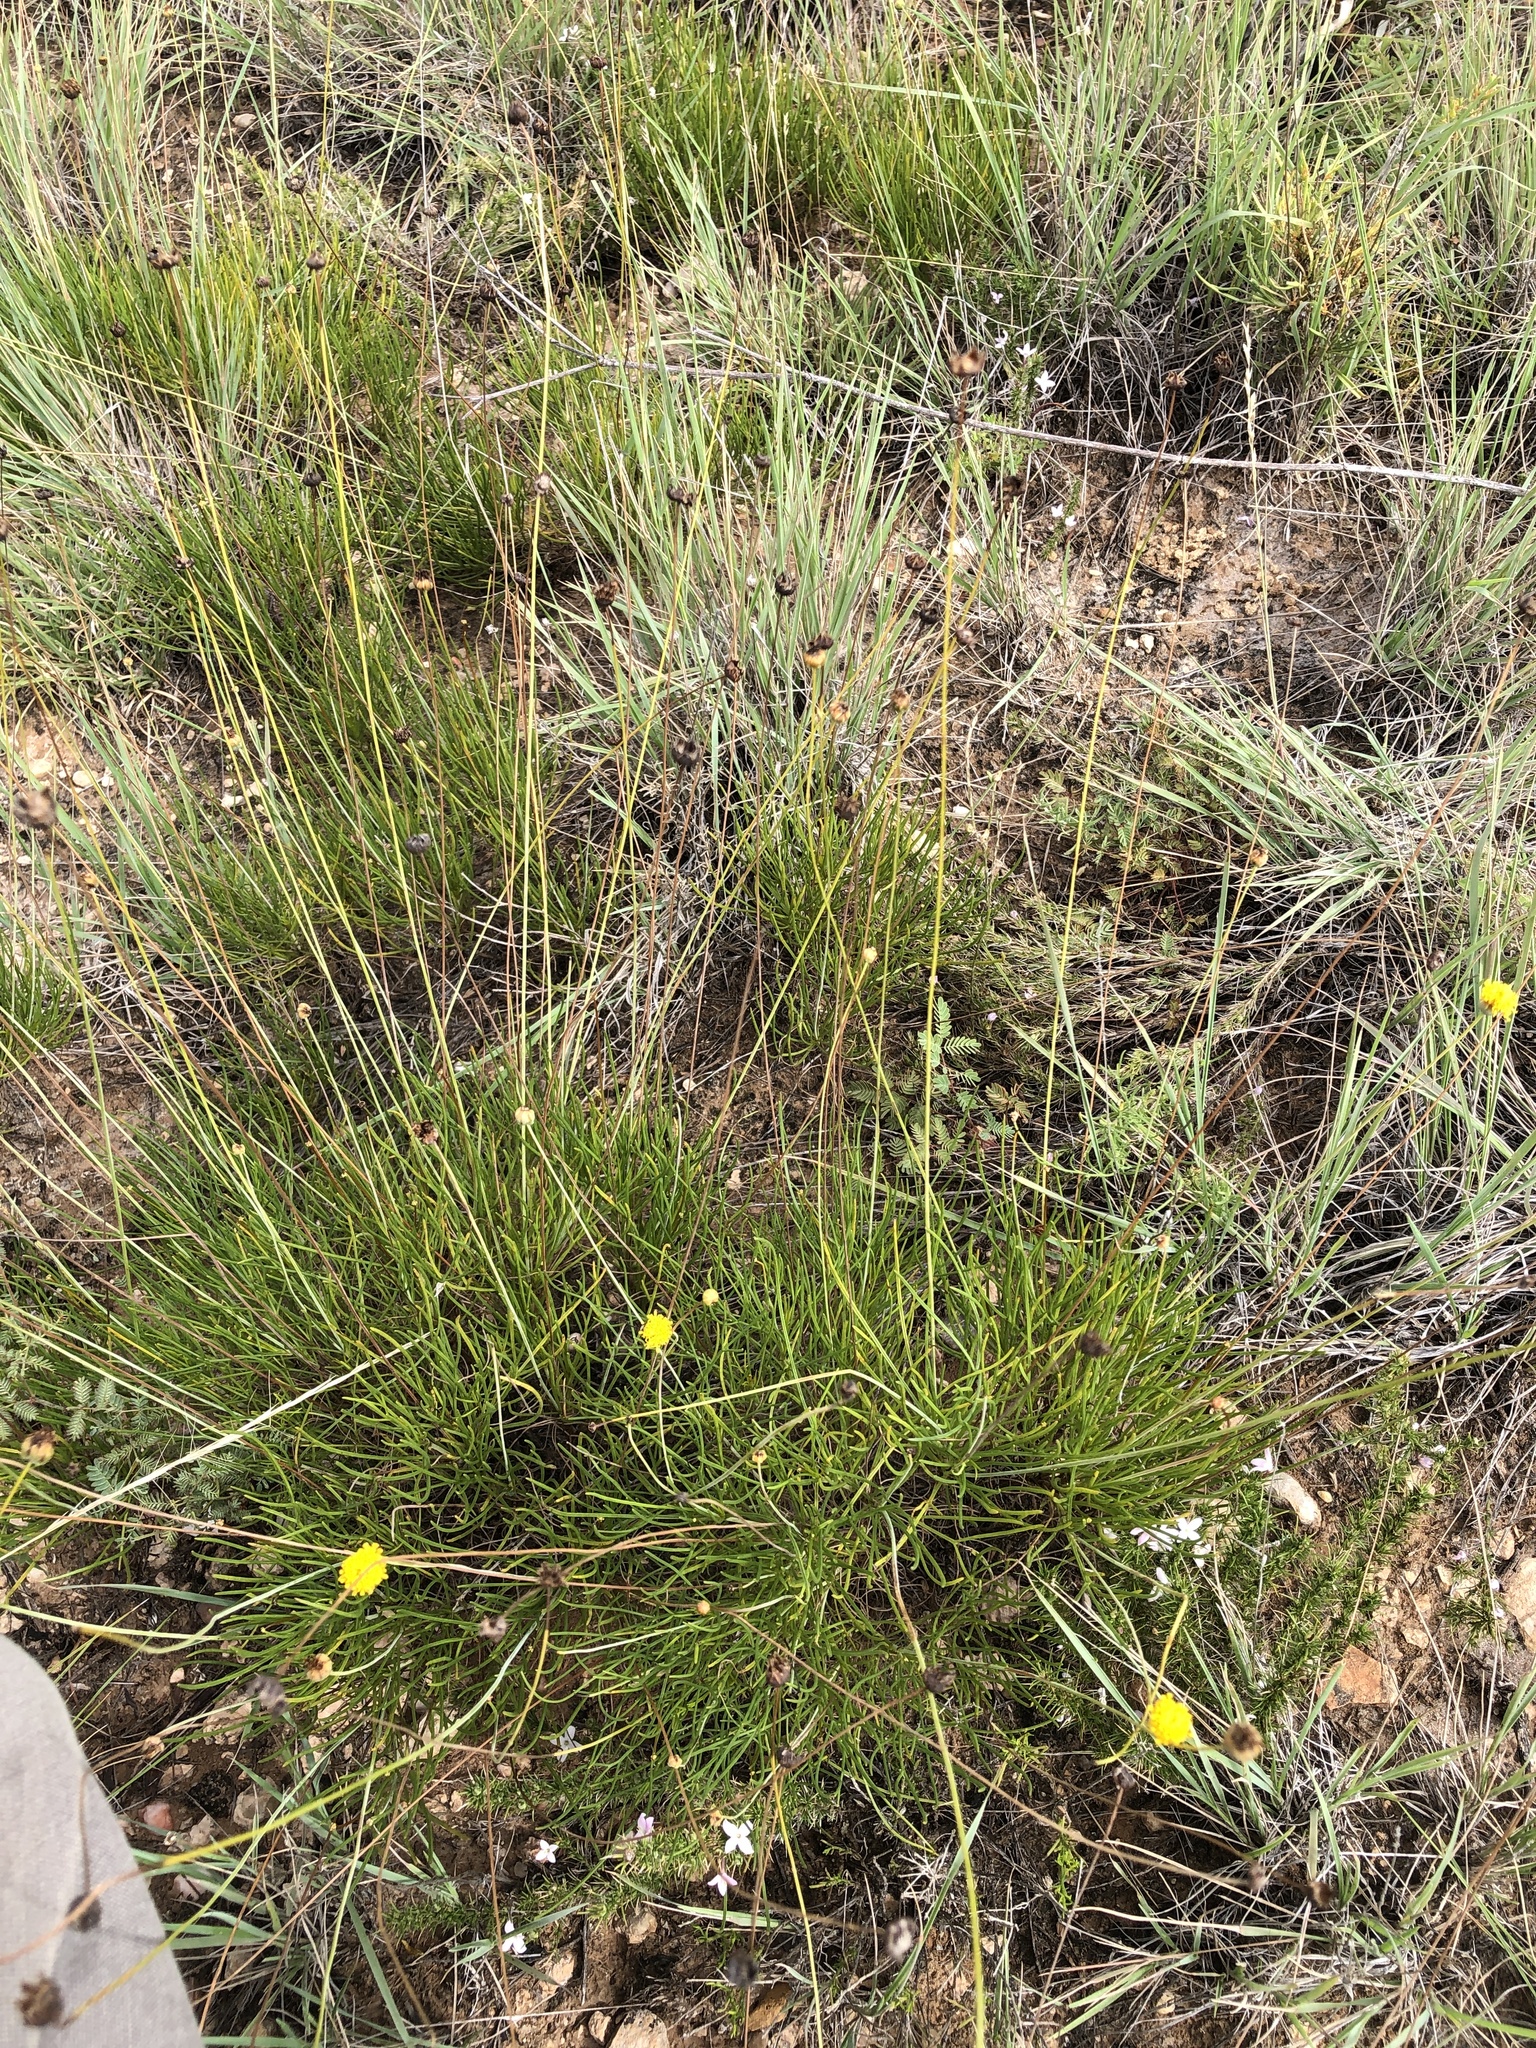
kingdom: Plantae
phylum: Tracheophyta
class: Magnoliopsida
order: Asterales
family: Asteraceae
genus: Thelesperma
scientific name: Thelesperma longipes
